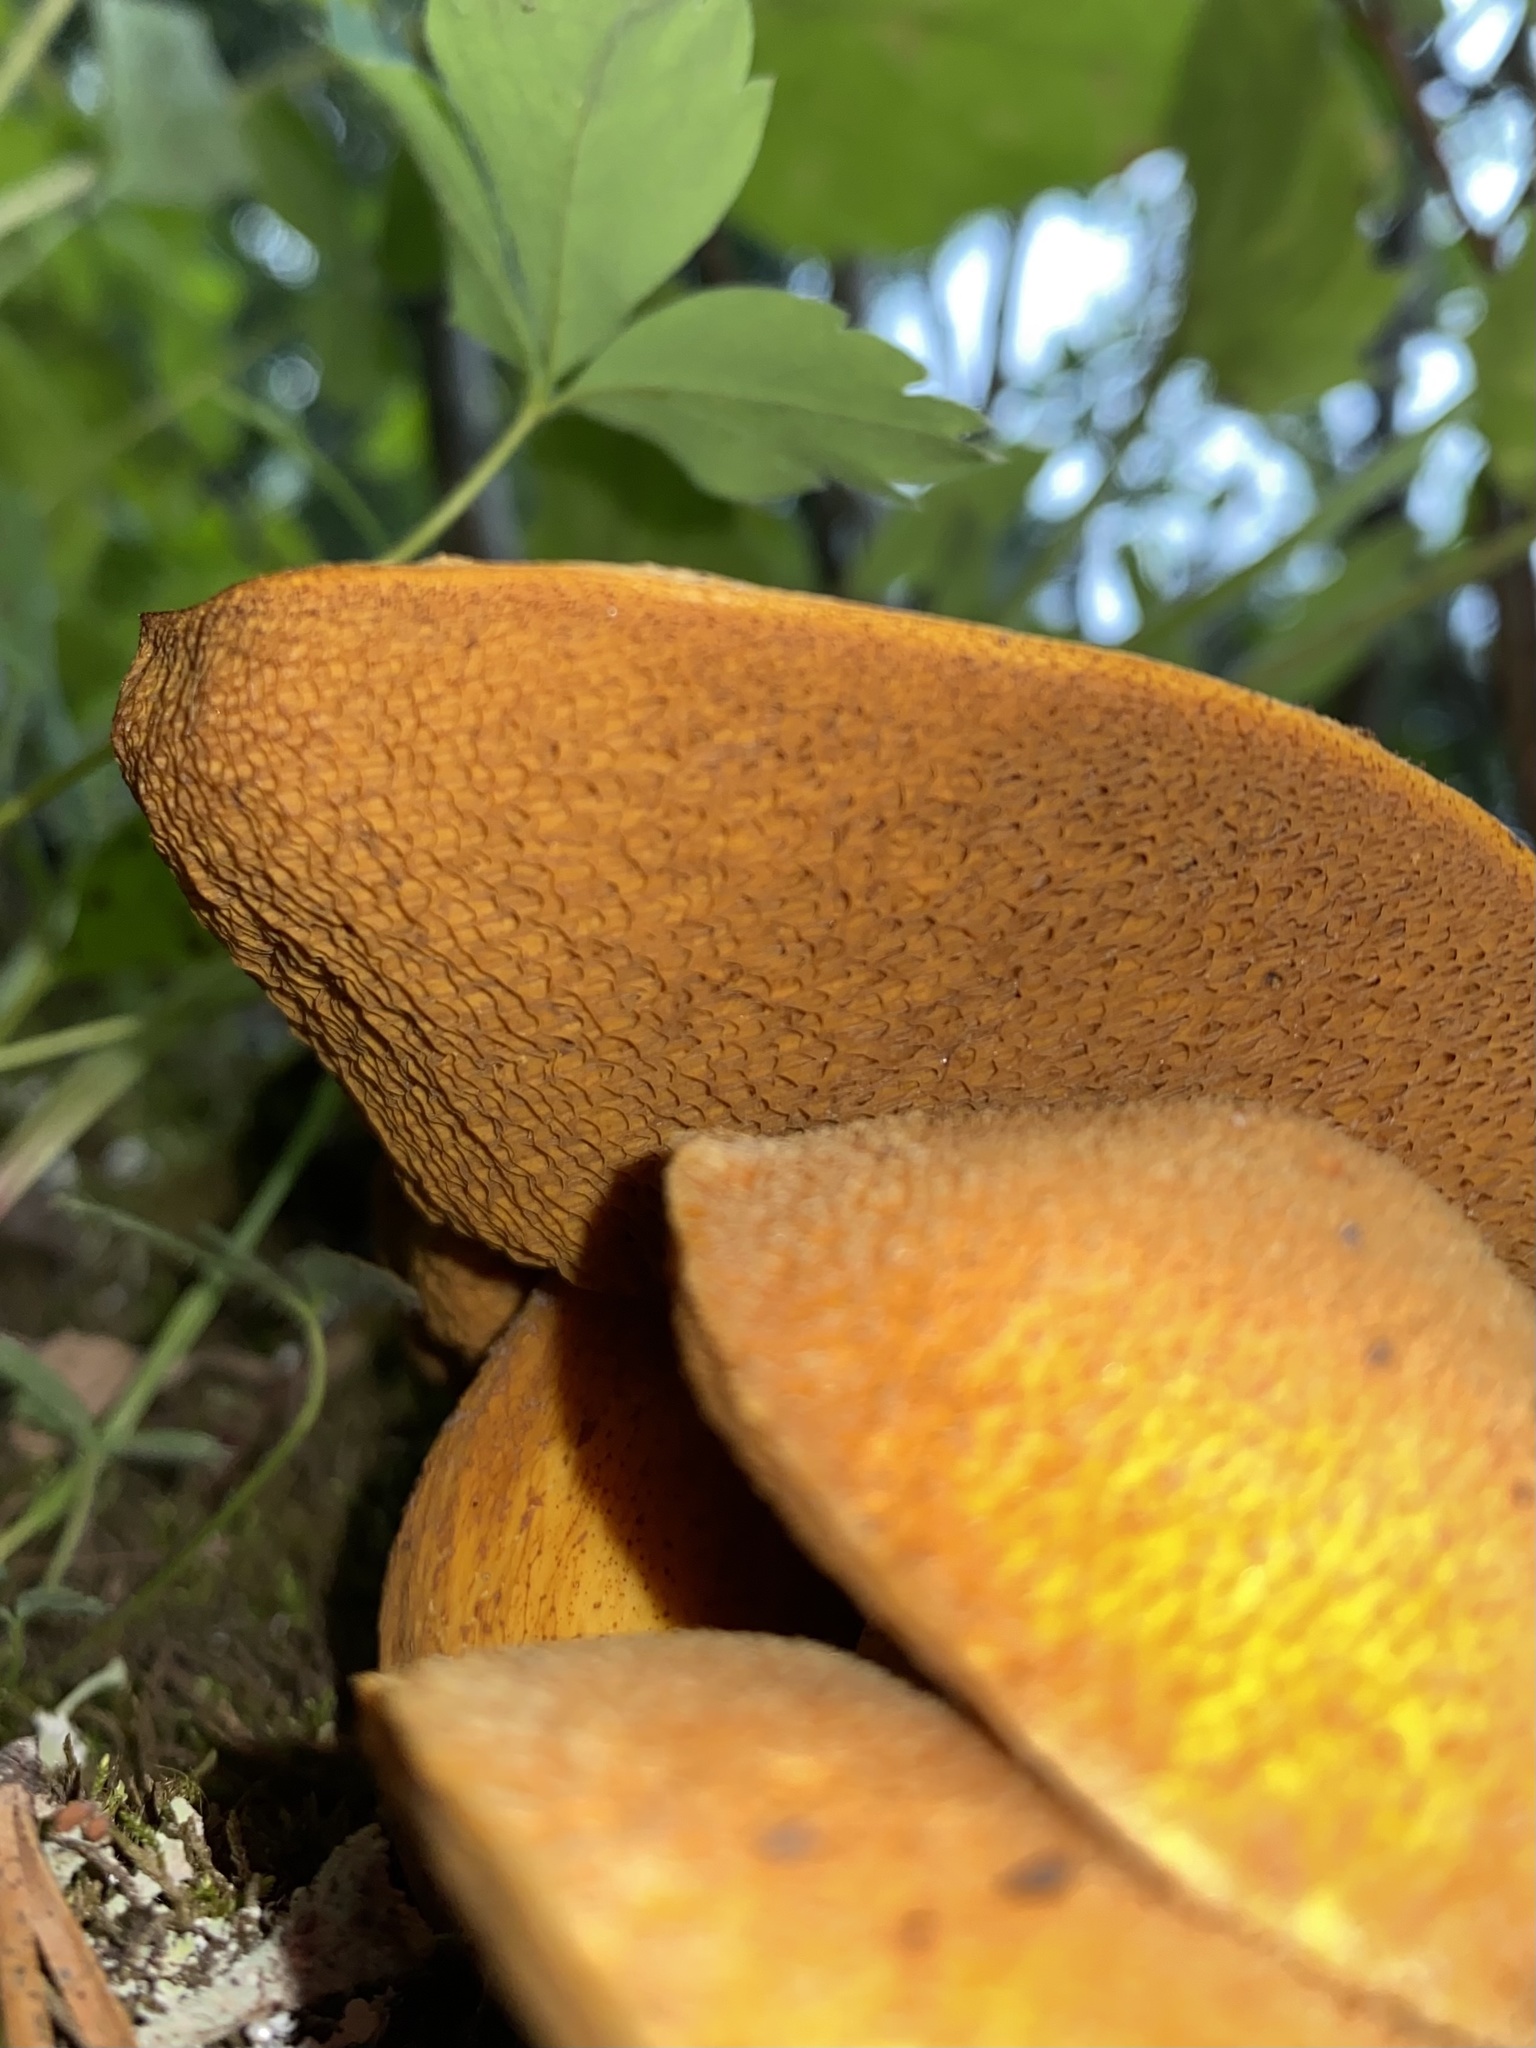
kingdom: Fungi
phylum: Basidiomycota
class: Agaricomycetes
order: Boletales
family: Suillaceae
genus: Suillus
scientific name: Suillus tomentosus
